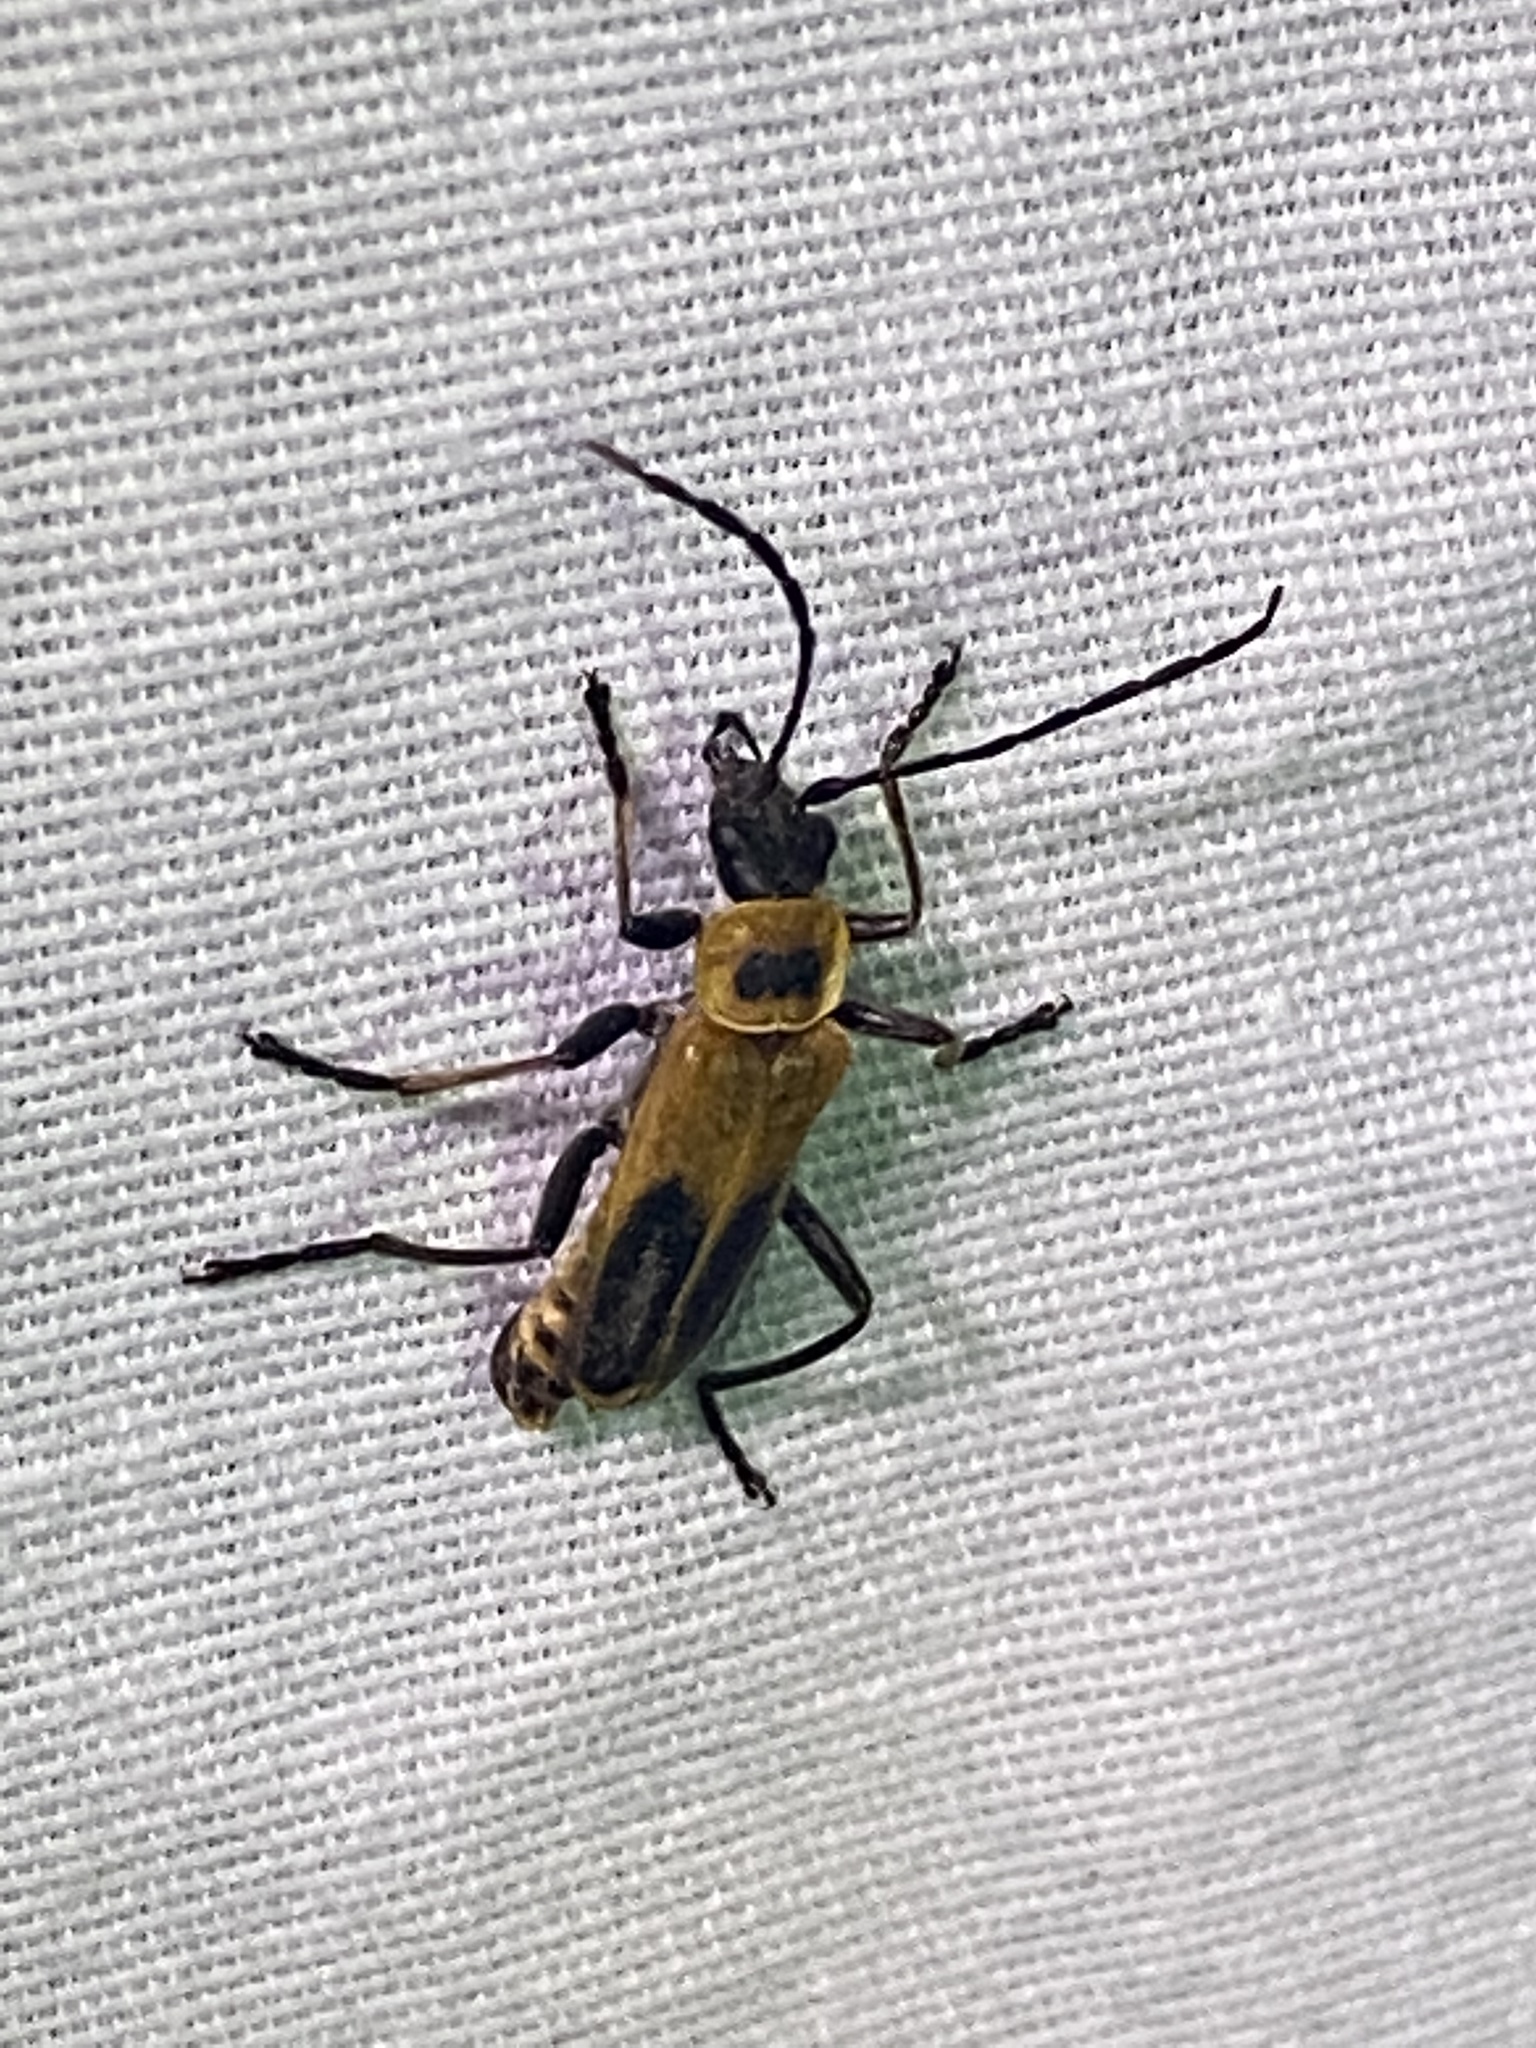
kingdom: Animalia
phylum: Arthropoda
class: Insecta
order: Coleoptera
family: Cantharidae
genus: Chauliognathus
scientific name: Chauliognathus pensylvanicus
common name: Goldenrod soldier beetle
